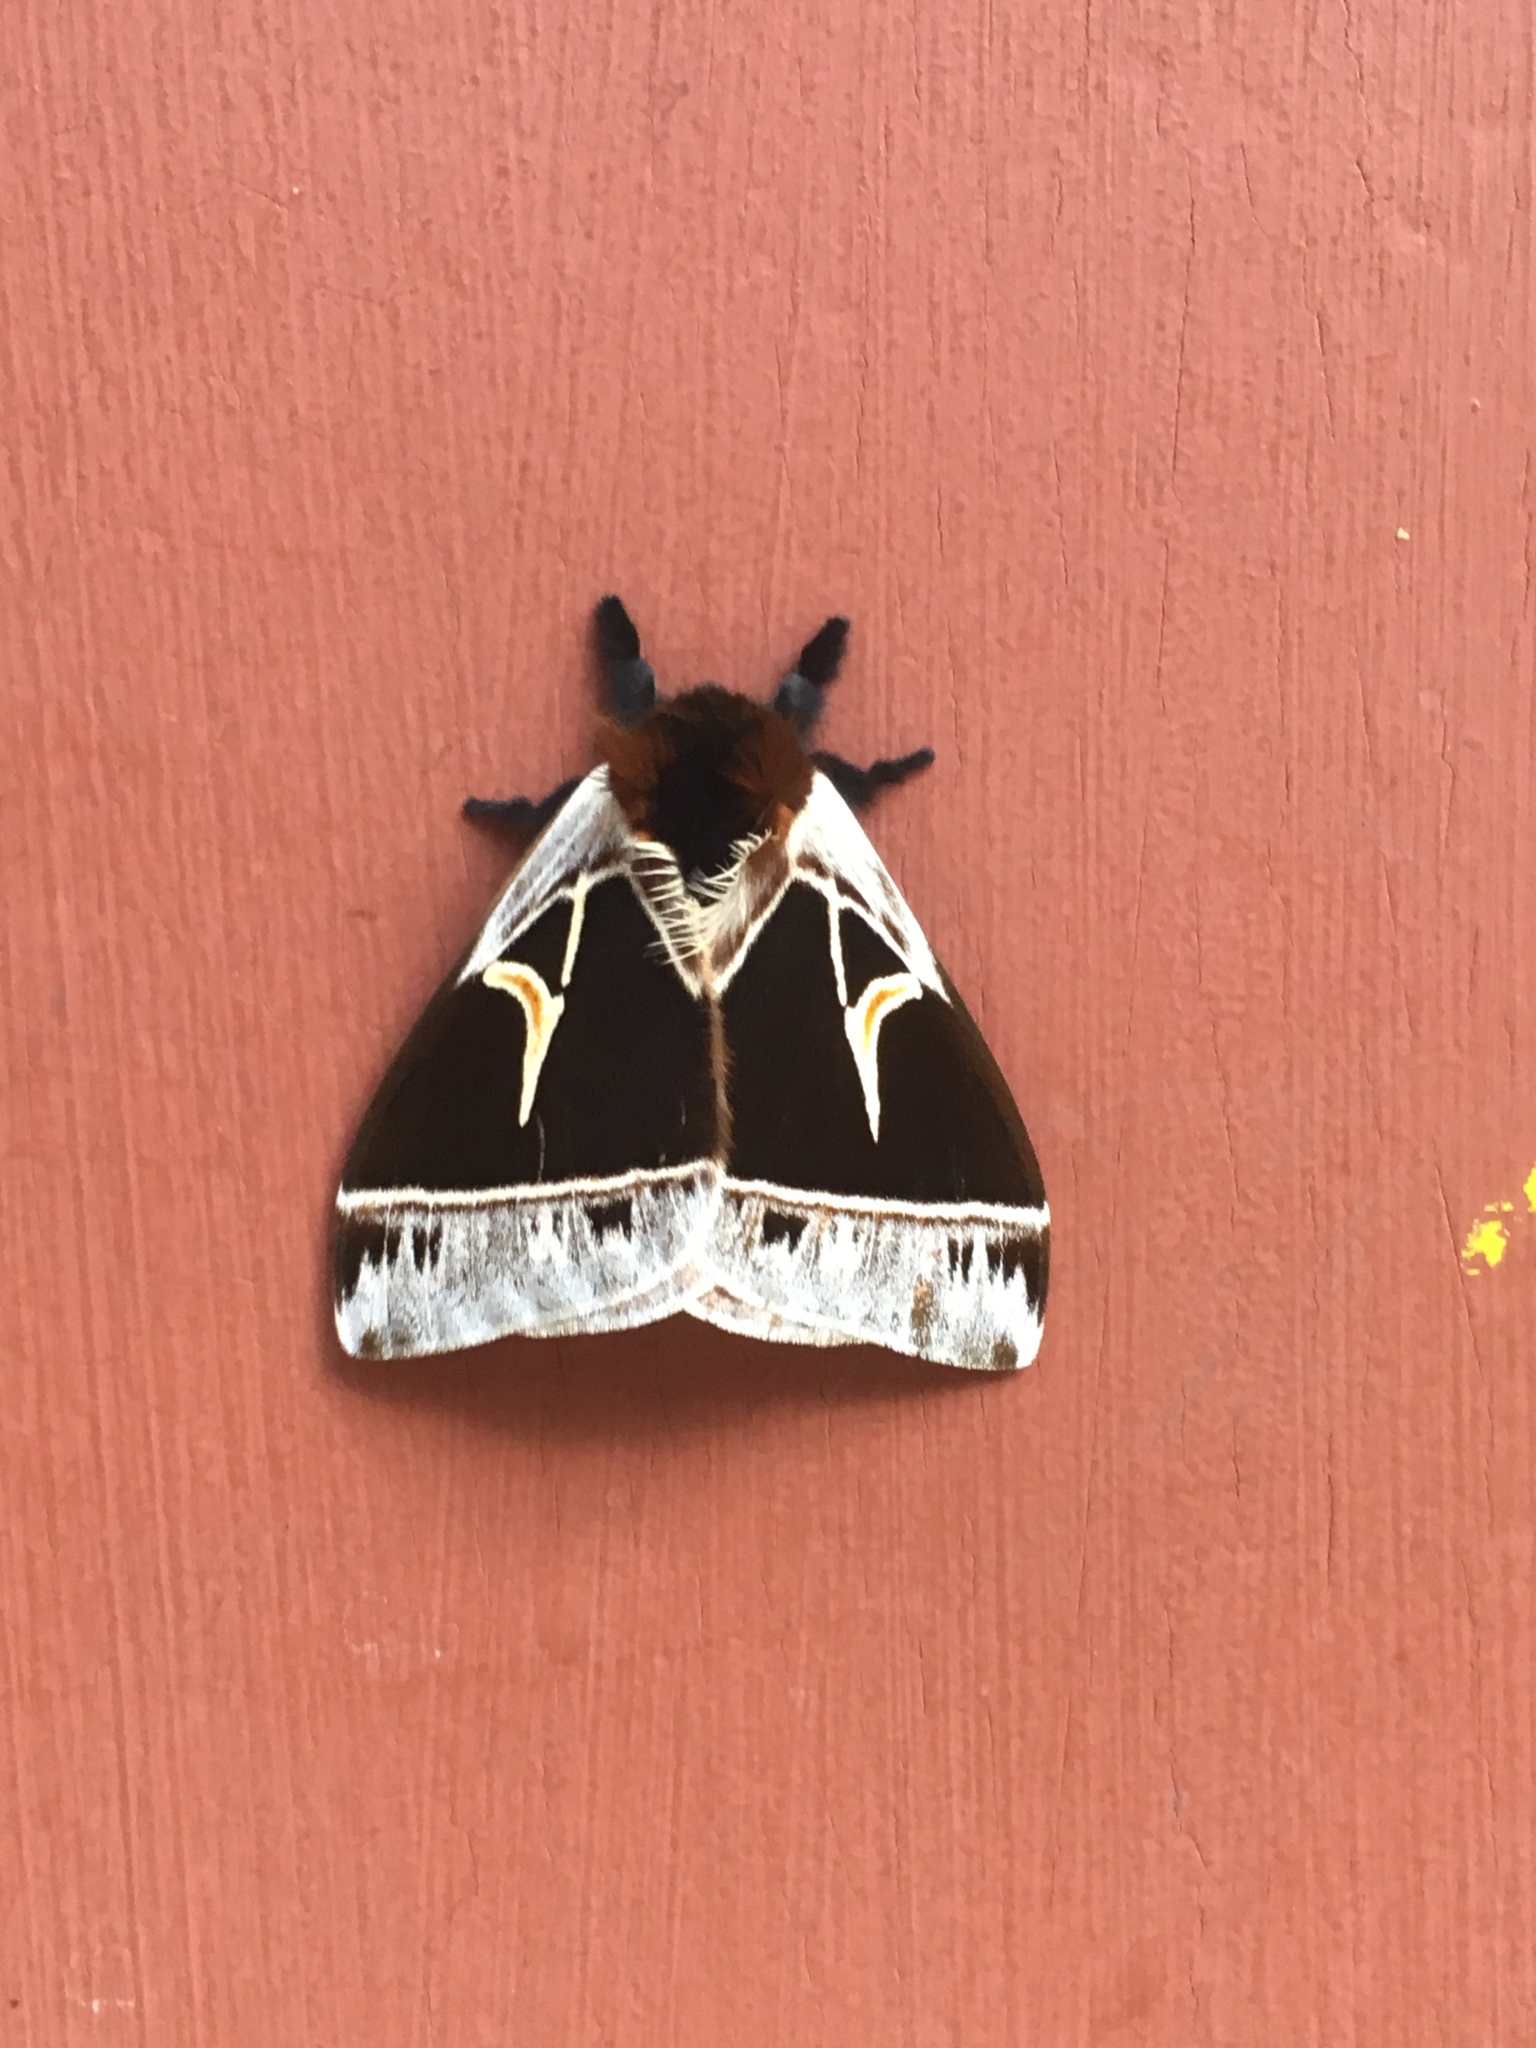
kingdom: Animalia
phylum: Arthropoda
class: Insecta
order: Lepidoptera
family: Saturniidae
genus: Dirphia
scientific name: Dirphia horcana
